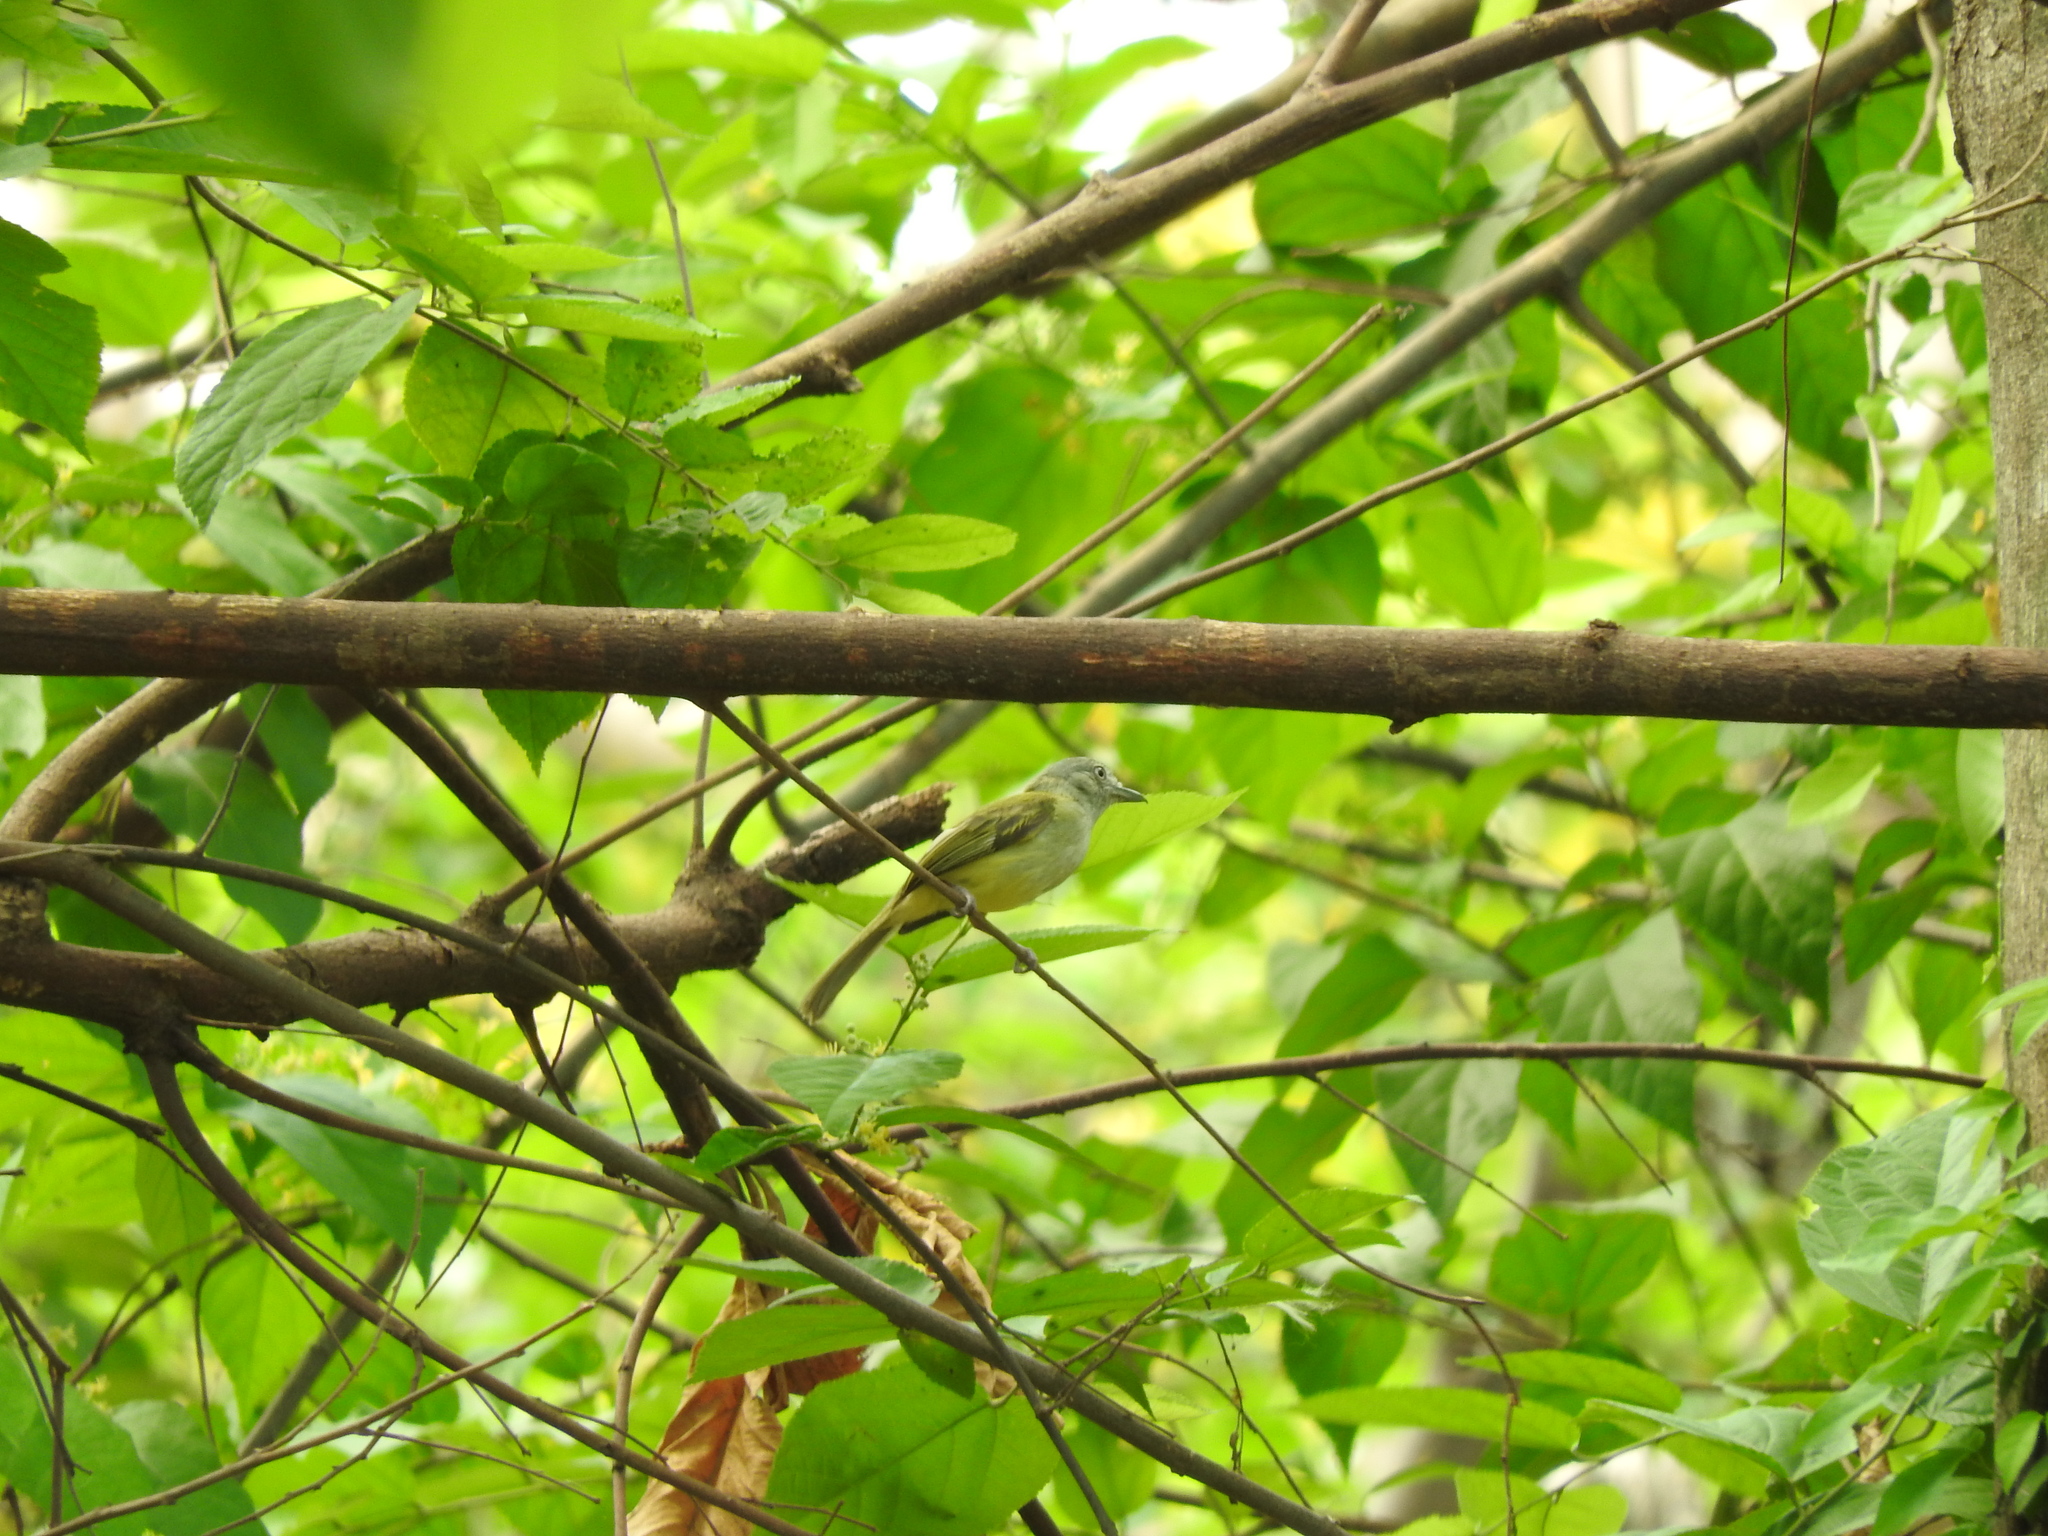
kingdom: Animalia
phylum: Chordata
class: Aves
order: Passeriformes
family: Tyrannidae
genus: Tolmomyias
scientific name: Tolmomyias sulphurescens
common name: Yellow-olive flycatcher
